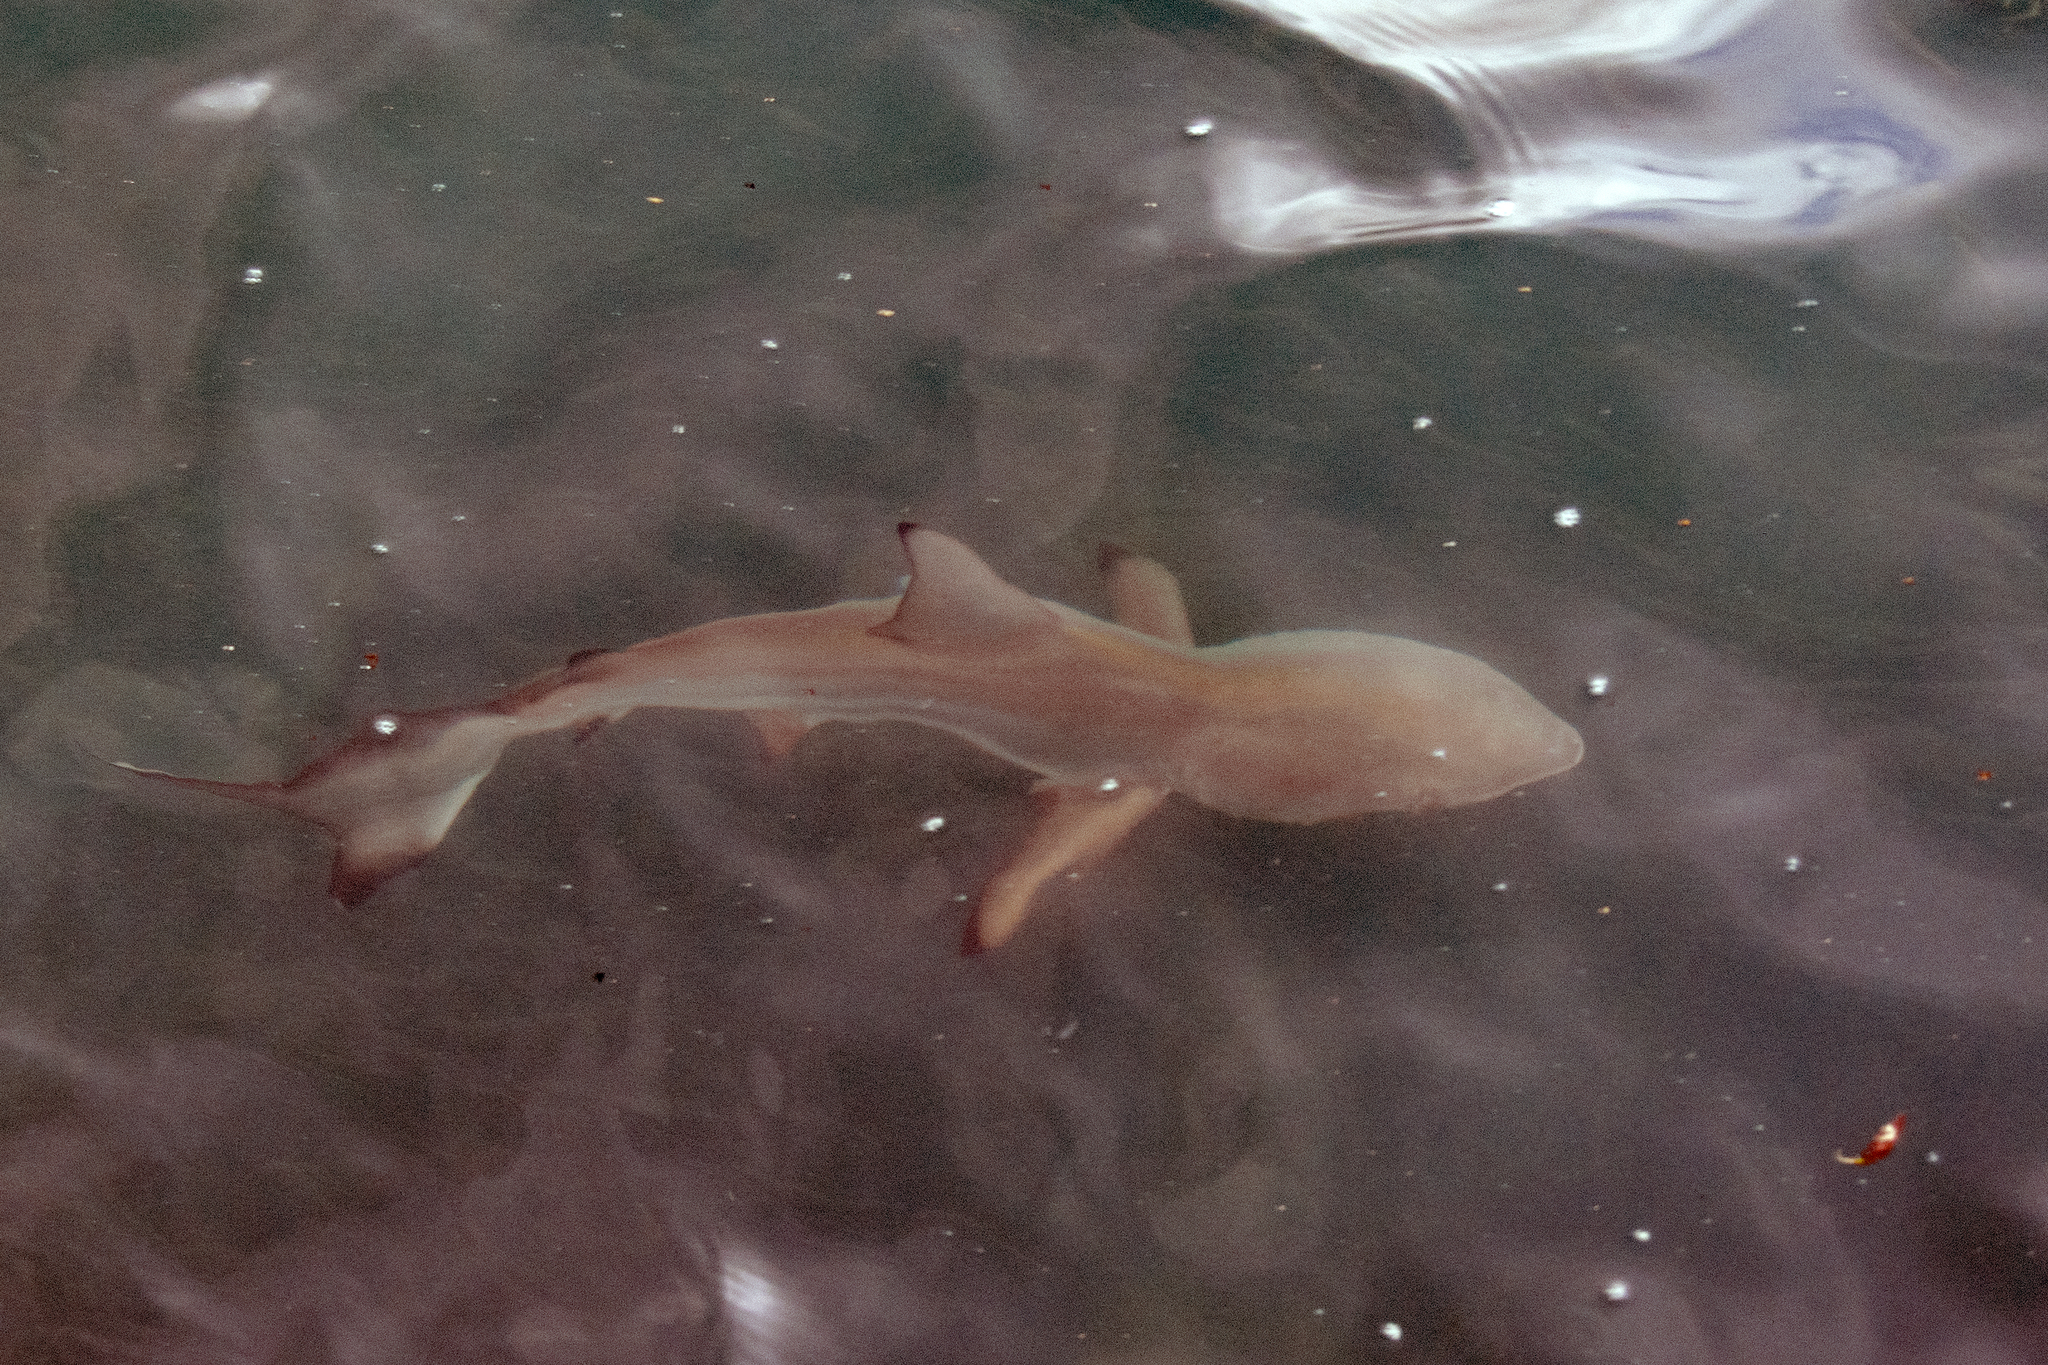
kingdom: Animalia
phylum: Chordata
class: Elasmobranchii
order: Carcharhiniformes
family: Carcharhinidae
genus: Carcharhinus
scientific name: Carcharhinus limbatus
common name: Blacktip shark
